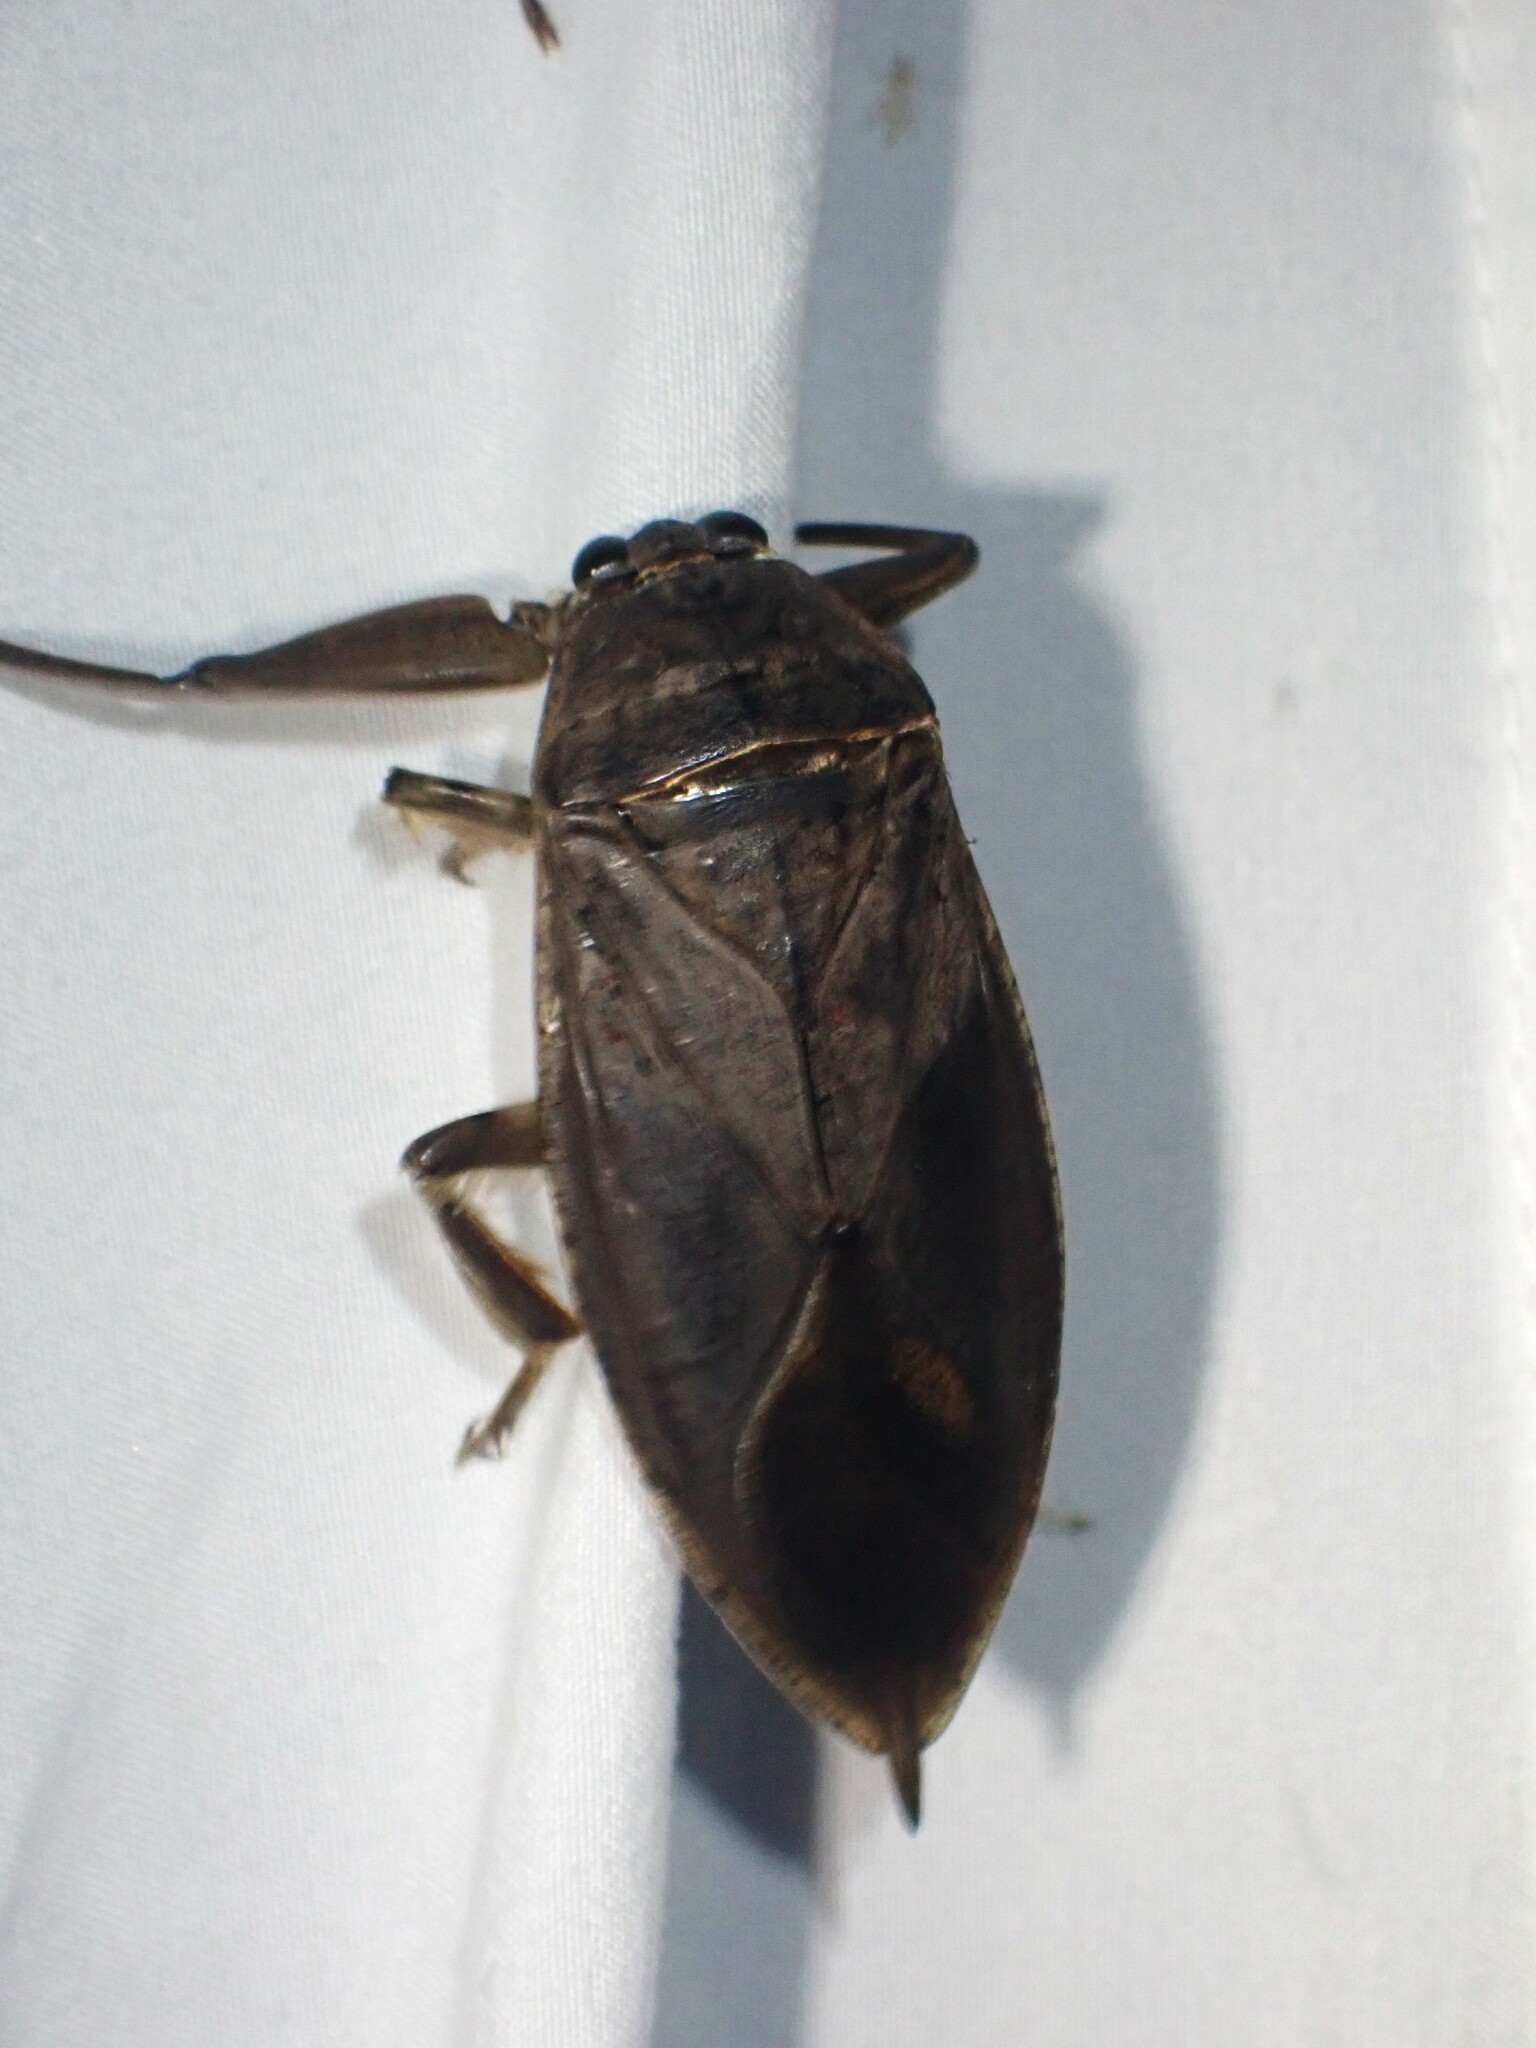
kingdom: Animalia
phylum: Arthropoda
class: Insecta
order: Hemiptera
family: Belostomatidae
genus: Lethocerus
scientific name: Lethocerus americanus
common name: Giant water bug
